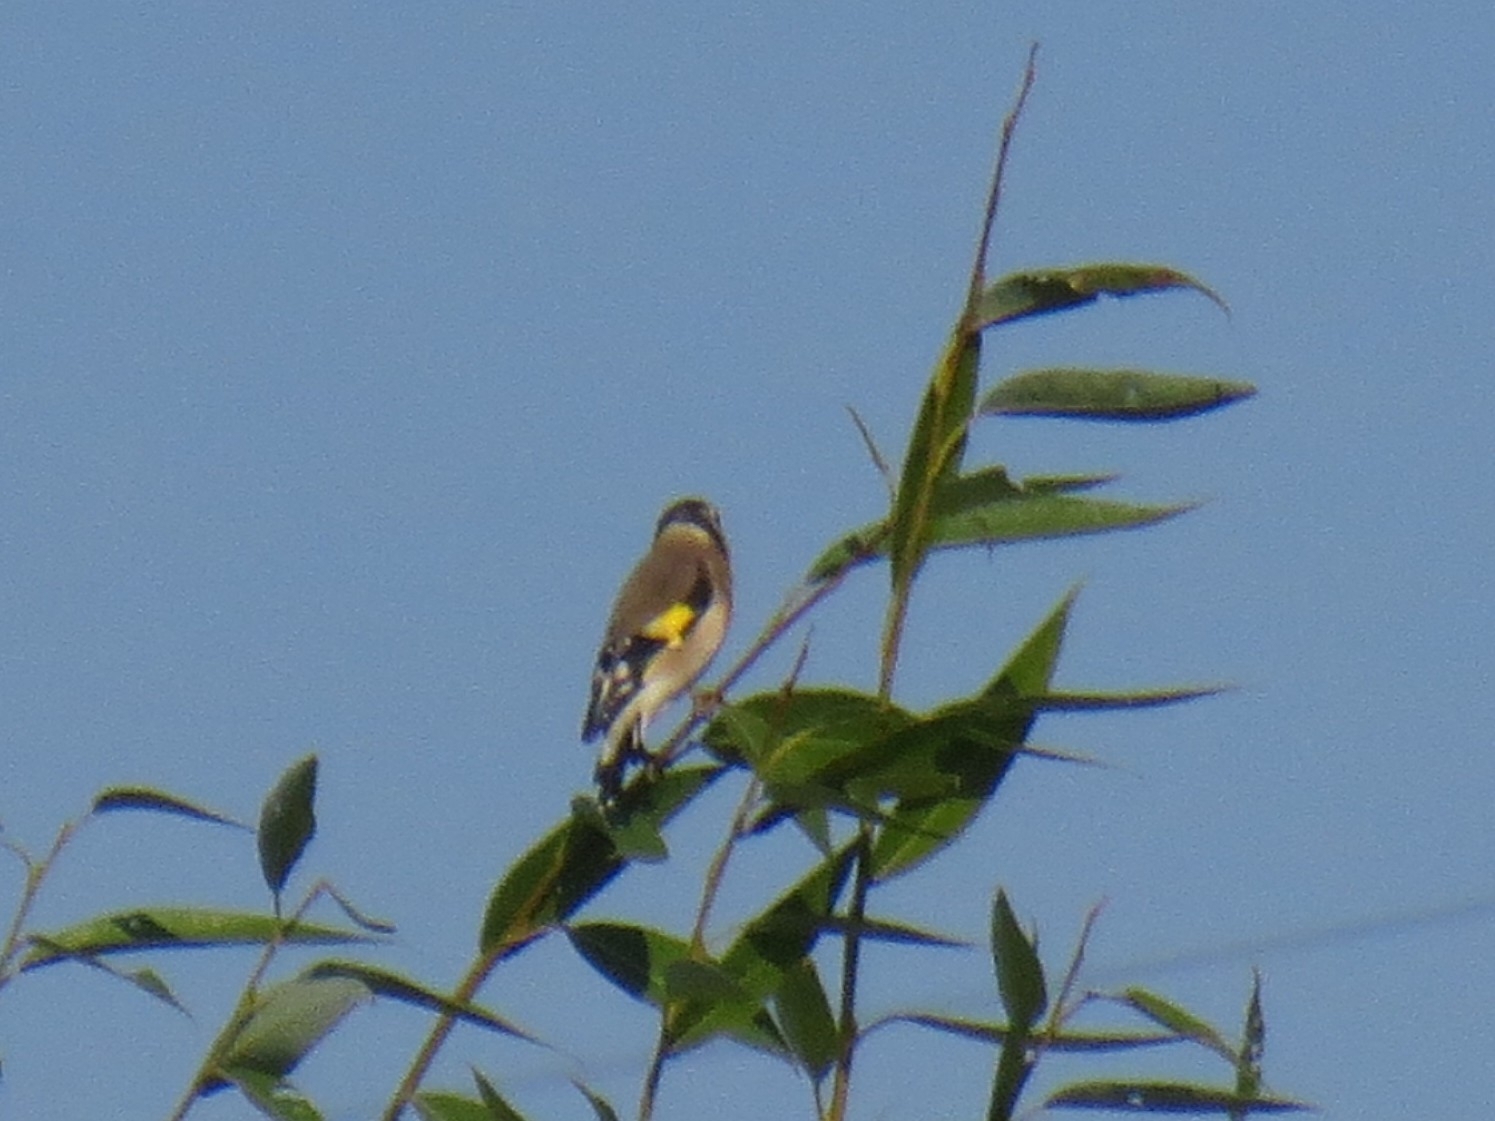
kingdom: Animalia
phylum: Chordata
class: Aves
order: Passeriformes
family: Fringillidae
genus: Carduelis
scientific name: Carduelis carduelis
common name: European goldfinch
